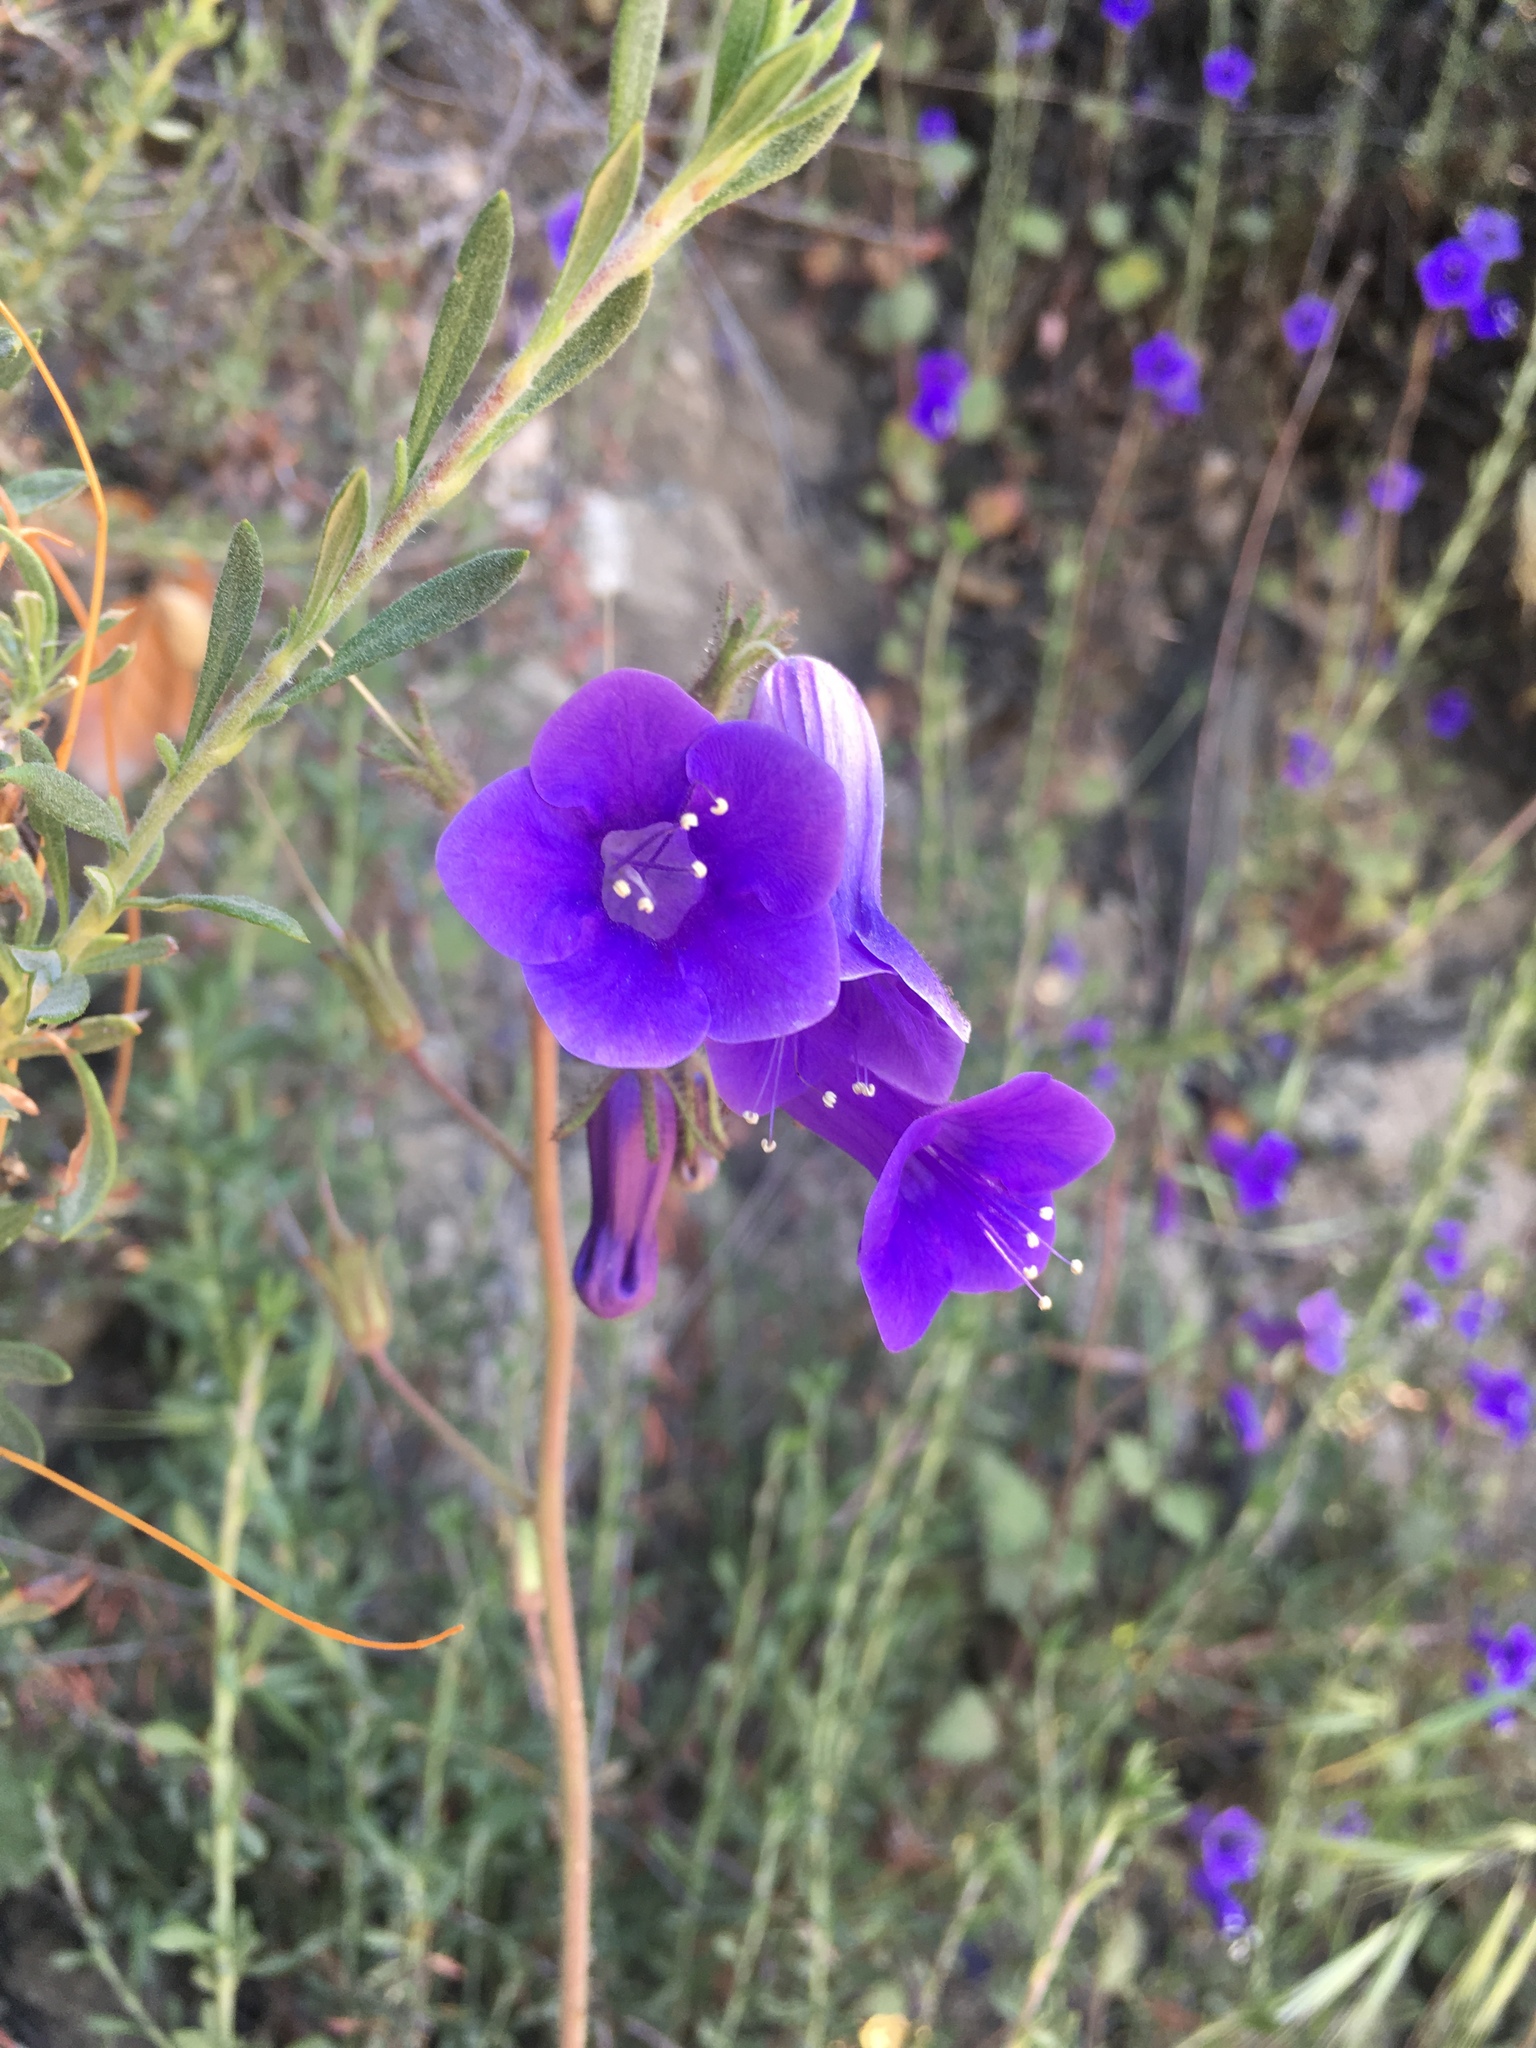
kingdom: Plantae
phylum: Tracheophyta
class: Magnoliopsida
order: Boraginales
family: Hydrophyllaceae
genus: Phacelia
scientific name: Phacelia minor
